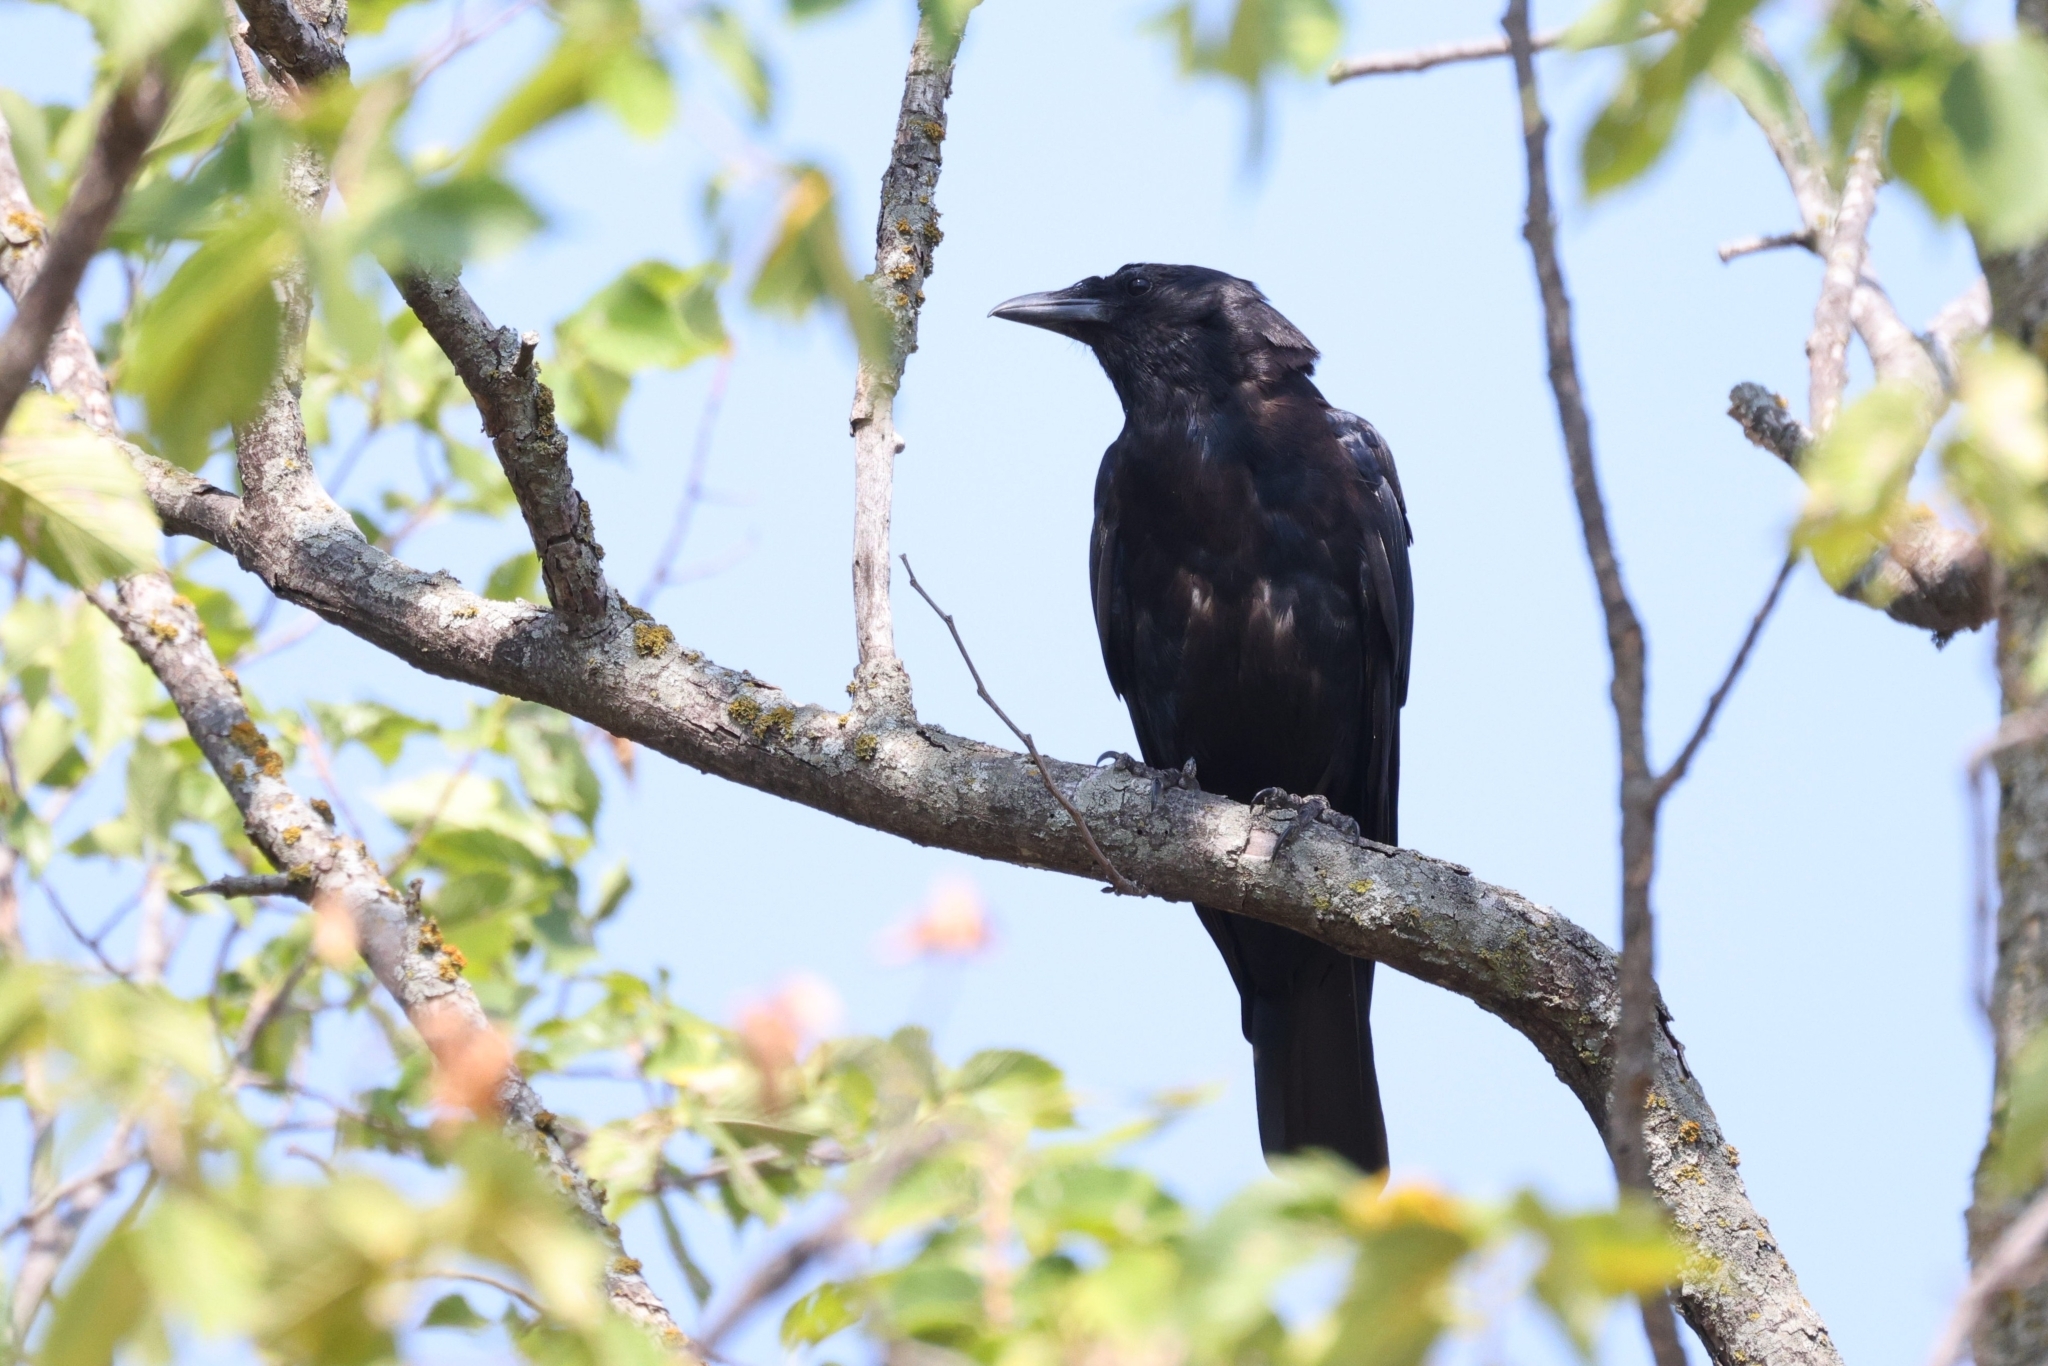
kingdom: Animalia
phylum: Chordata
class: Aves
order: Passeriformes
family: Corvidae
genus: Corvus
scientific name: Corvus ossifragus
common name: Fish crow
